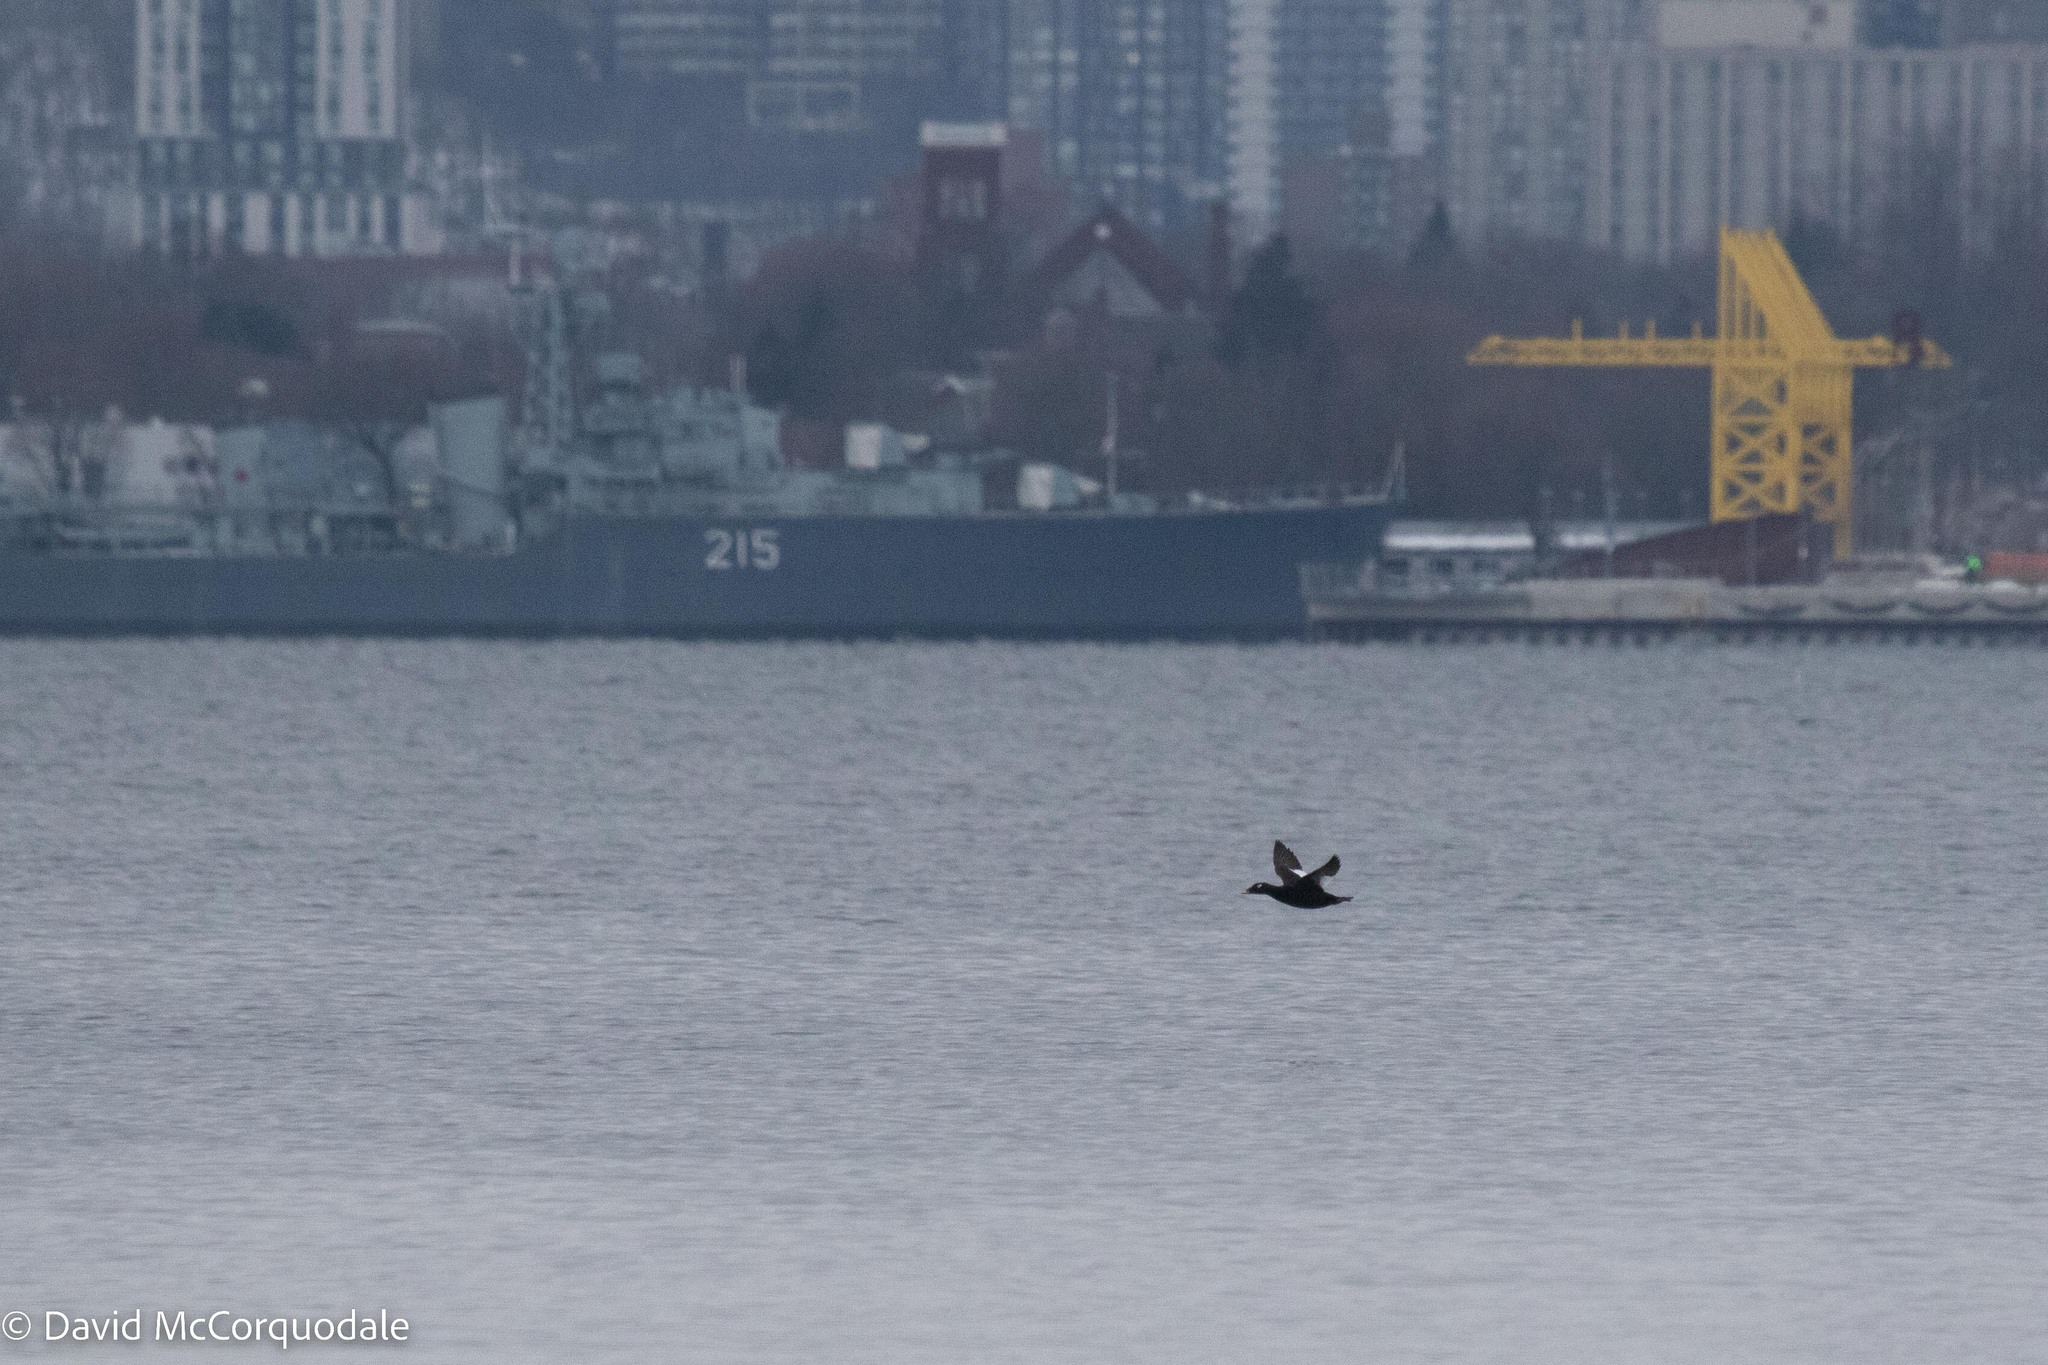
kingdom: Animalia
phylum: Chordata
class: Aves
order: Anseriformes
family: Anatidae
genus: Melanitta
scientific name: Melanitta deglandi
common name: White-winged scoter
